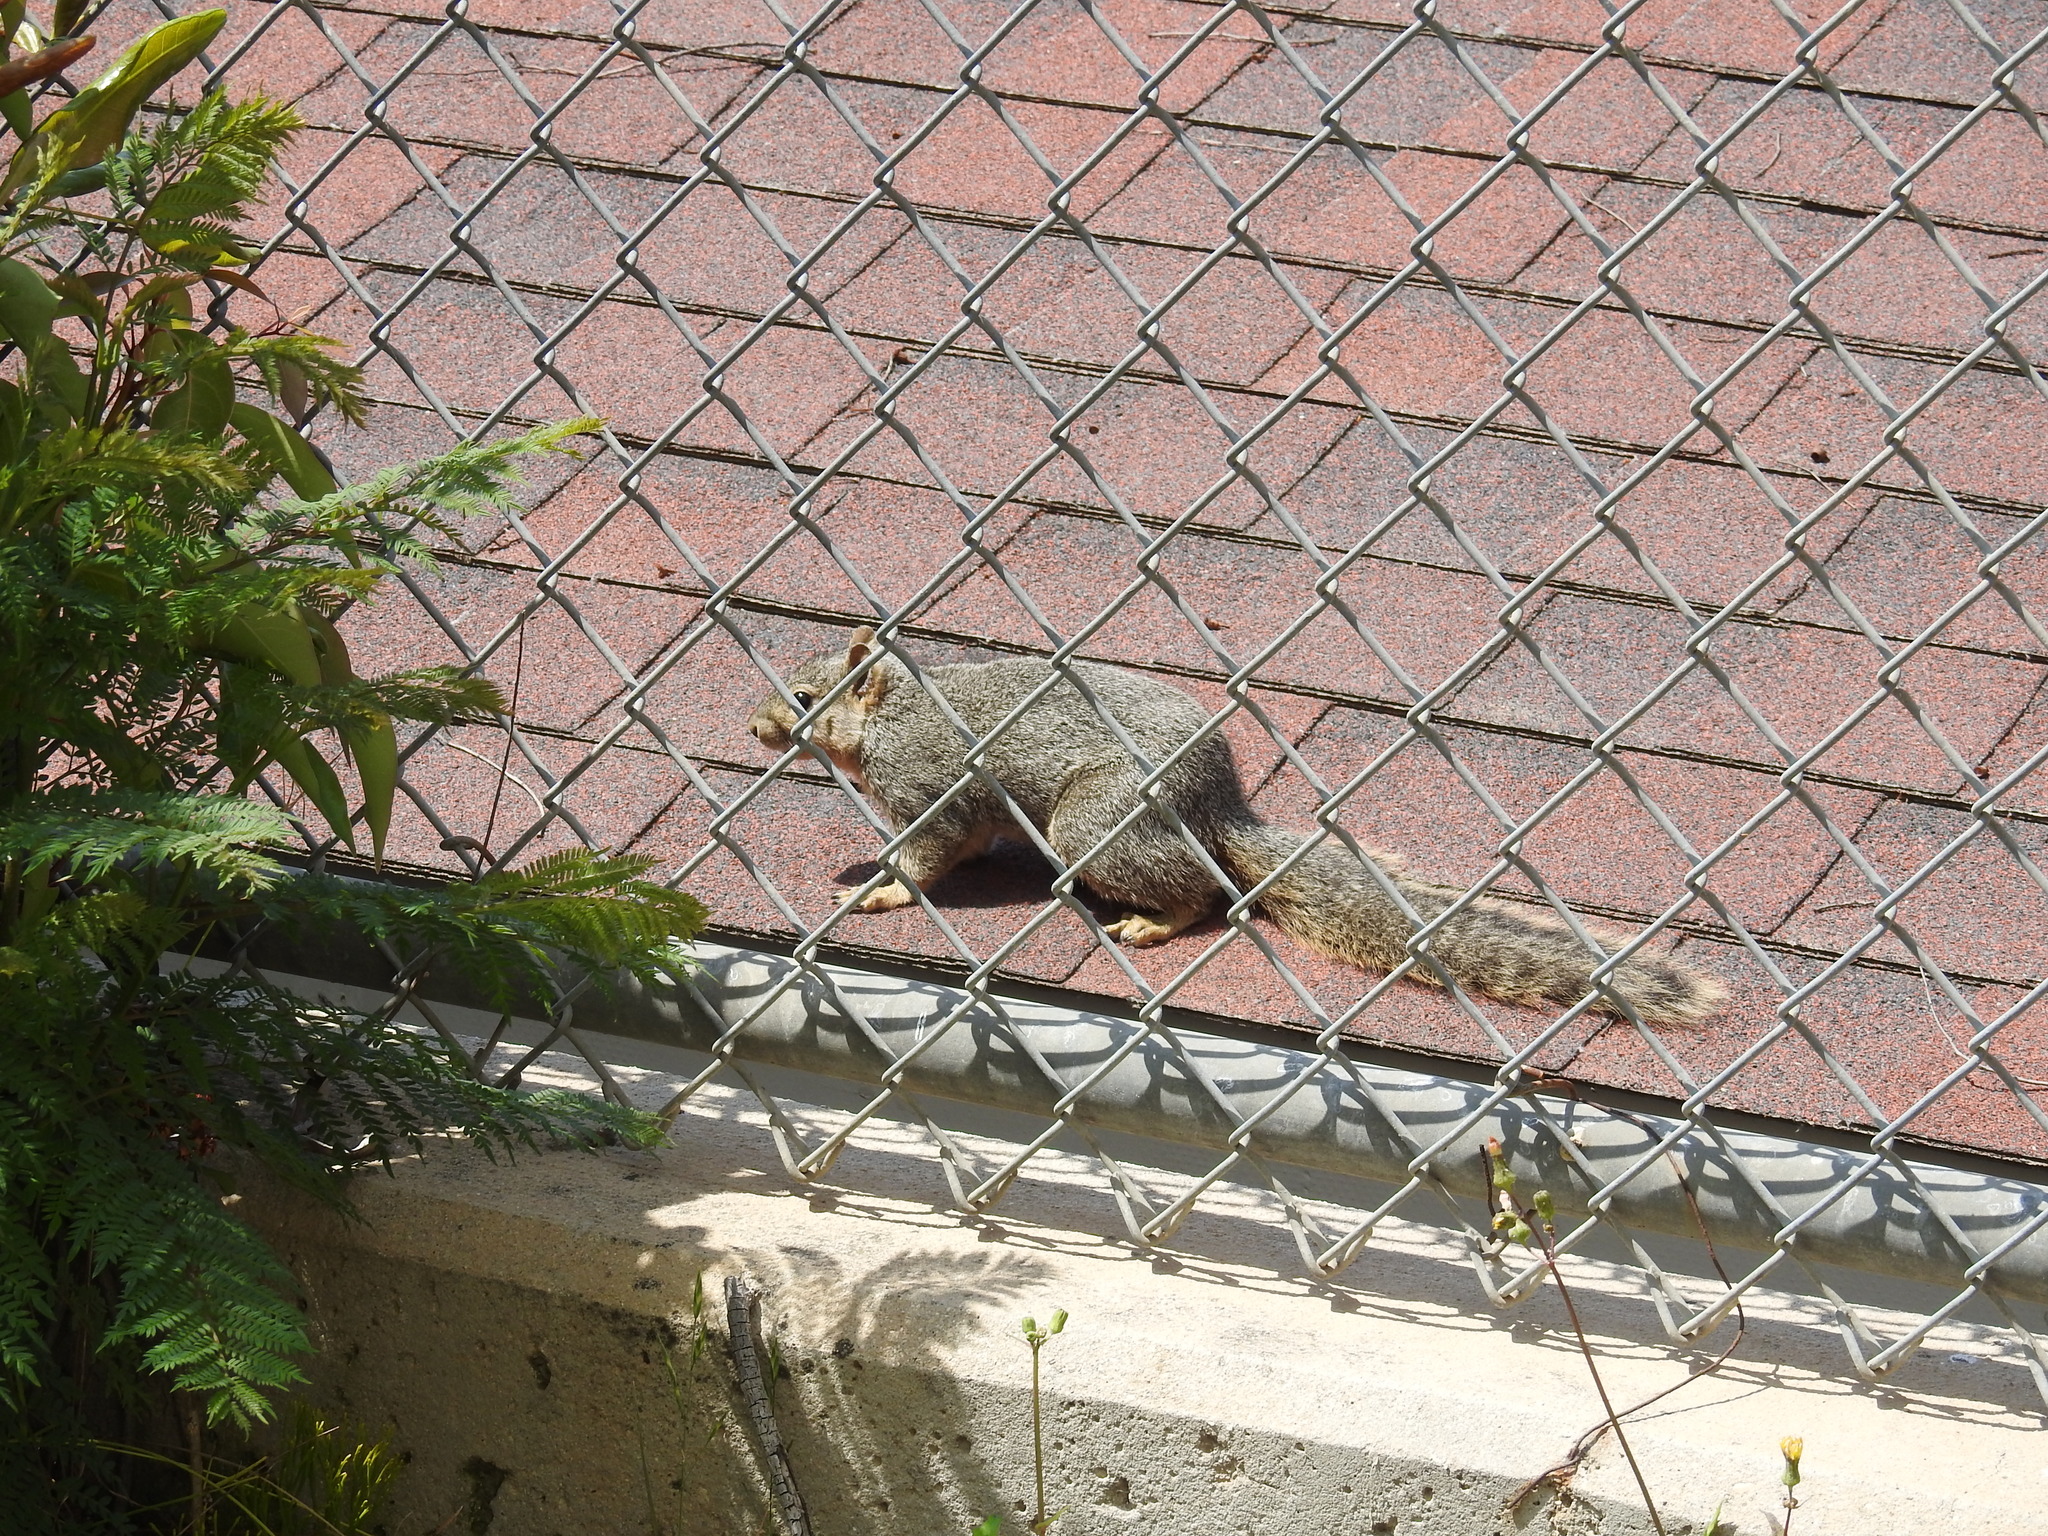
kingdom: Animalia
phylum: Chordata
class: Mammalia
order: Rodentia
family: Sciuridae
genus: Sciurus
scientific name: Sciurus niger
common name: Fox squirrel
